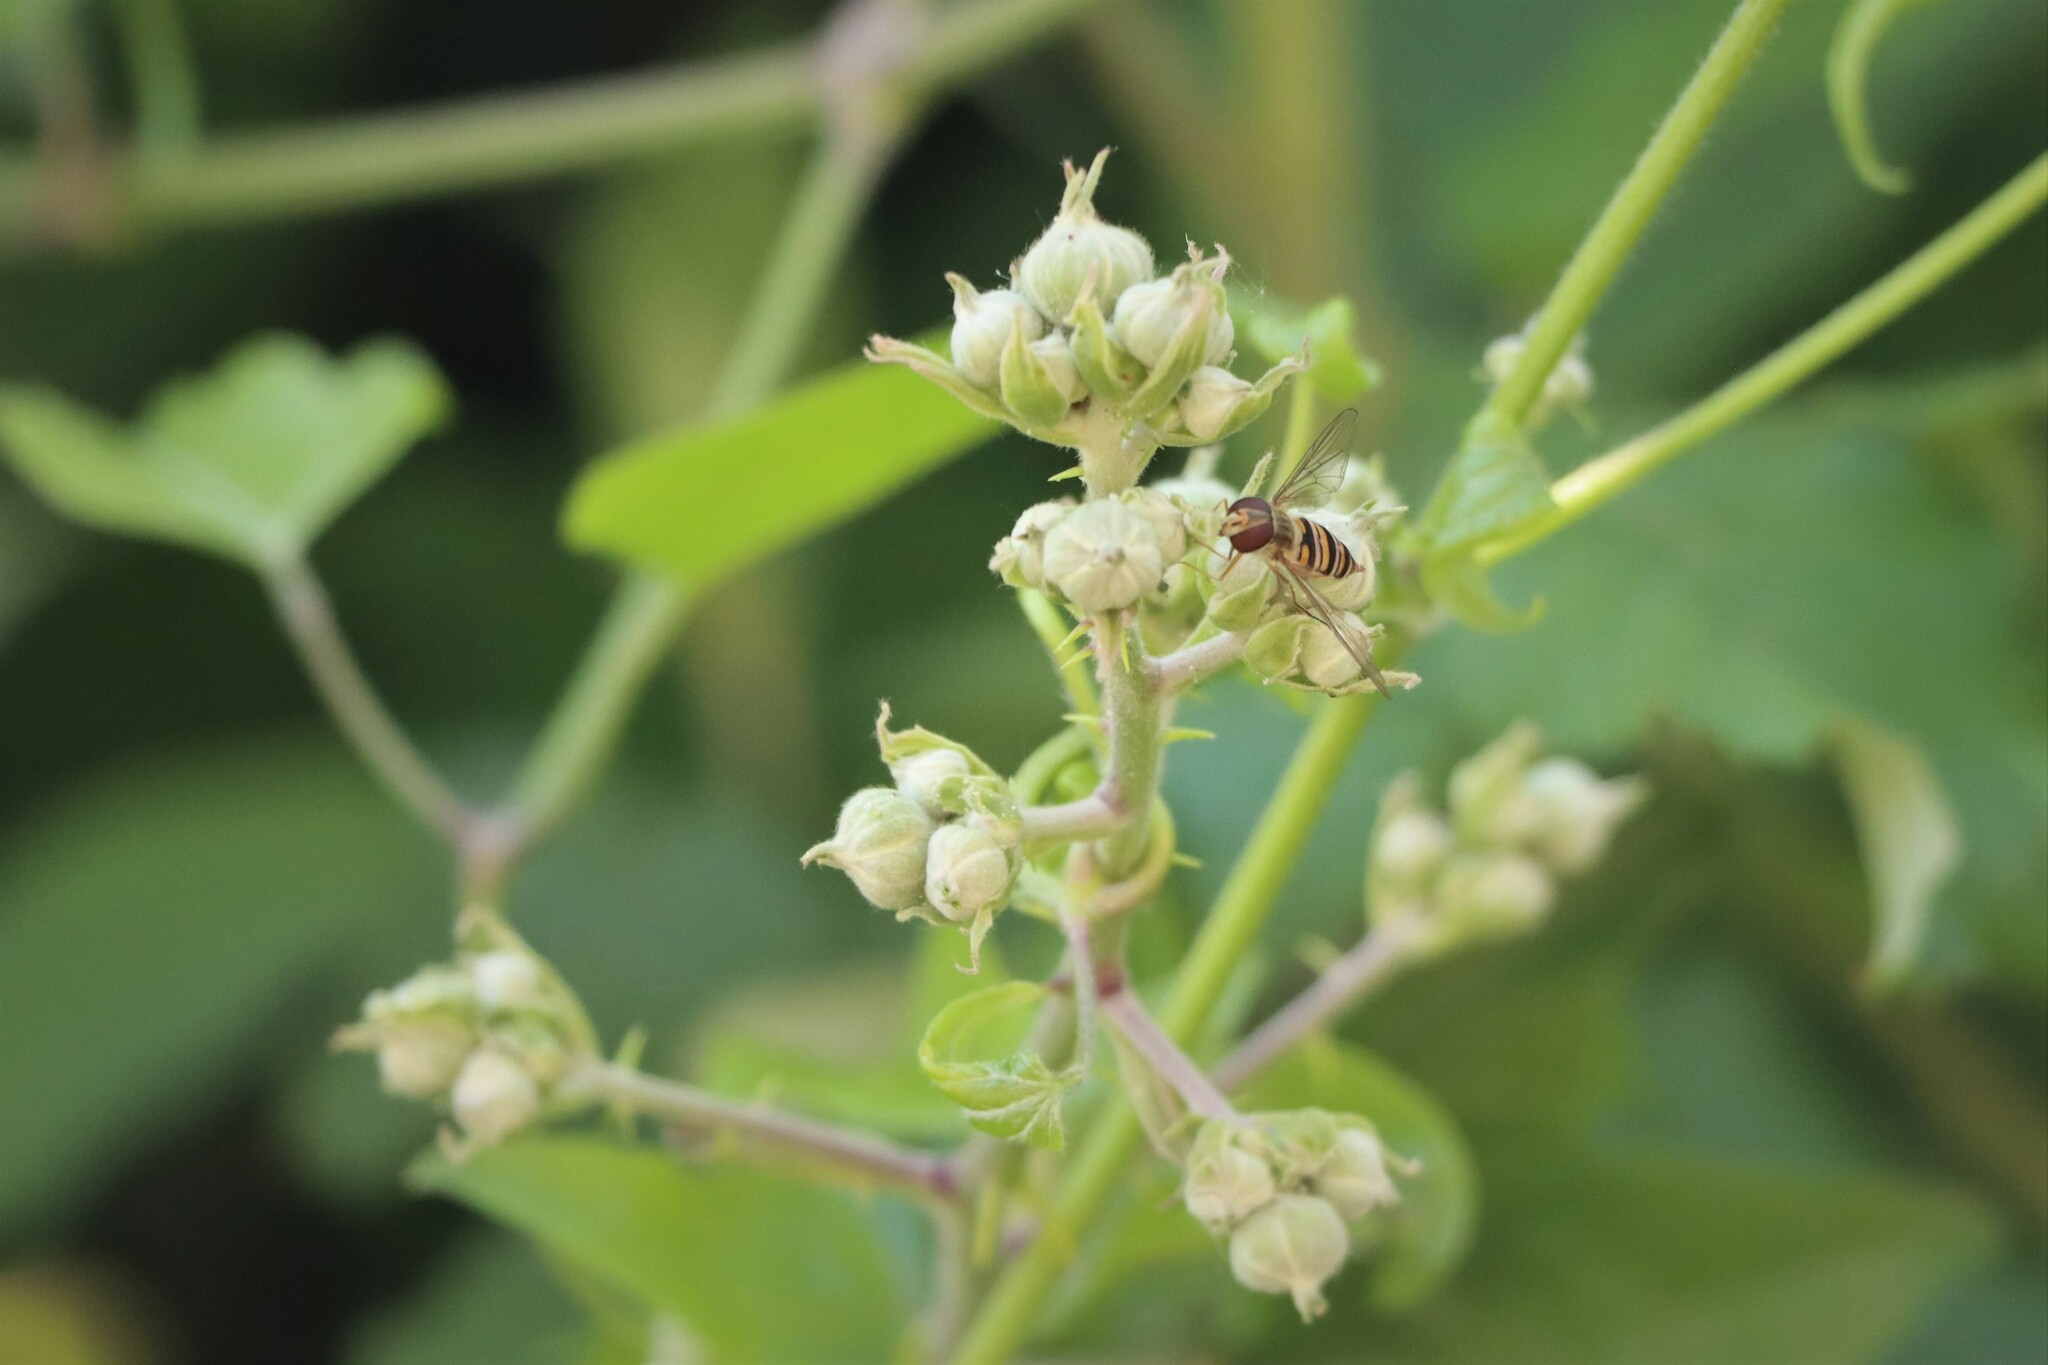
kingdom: Animalia
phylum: Arthropoda
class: Insecta
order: Diptera
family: Syrphidae
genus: Episyrphus
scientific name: Episyrphus balteatus
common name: Marmalade hoverfly
